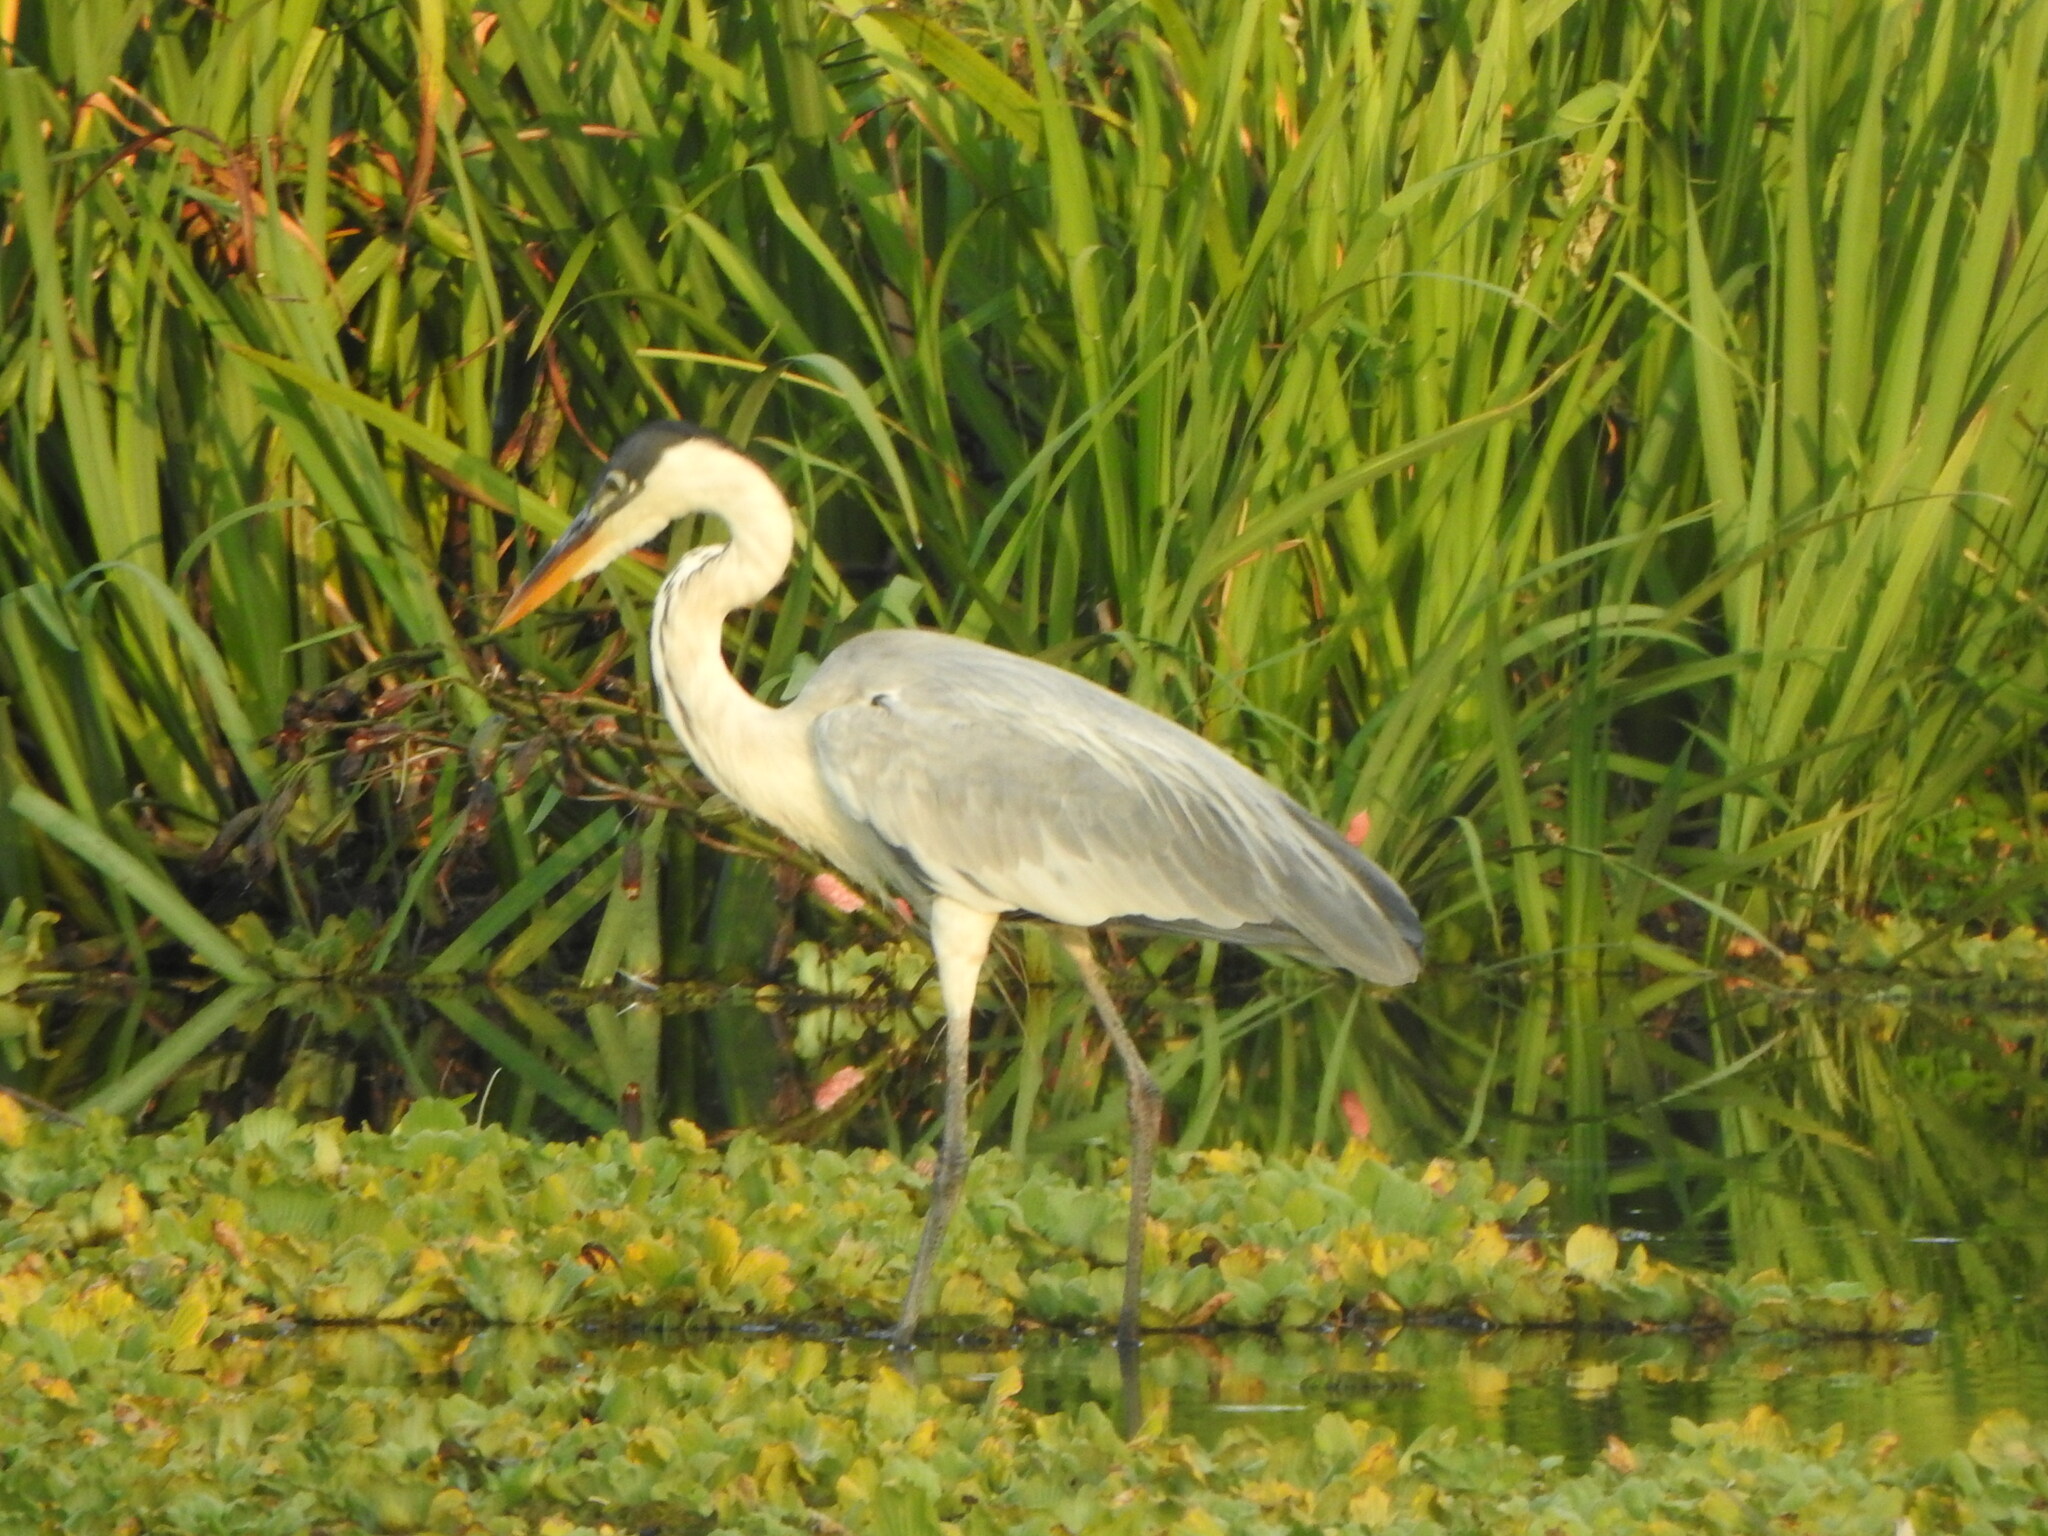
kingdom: Animalia
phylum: Chordata
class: Aves
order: Pelecaniformes
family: Ardeidae
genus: Ardea
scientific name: Ardea cocoi
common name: Cocoi heron
